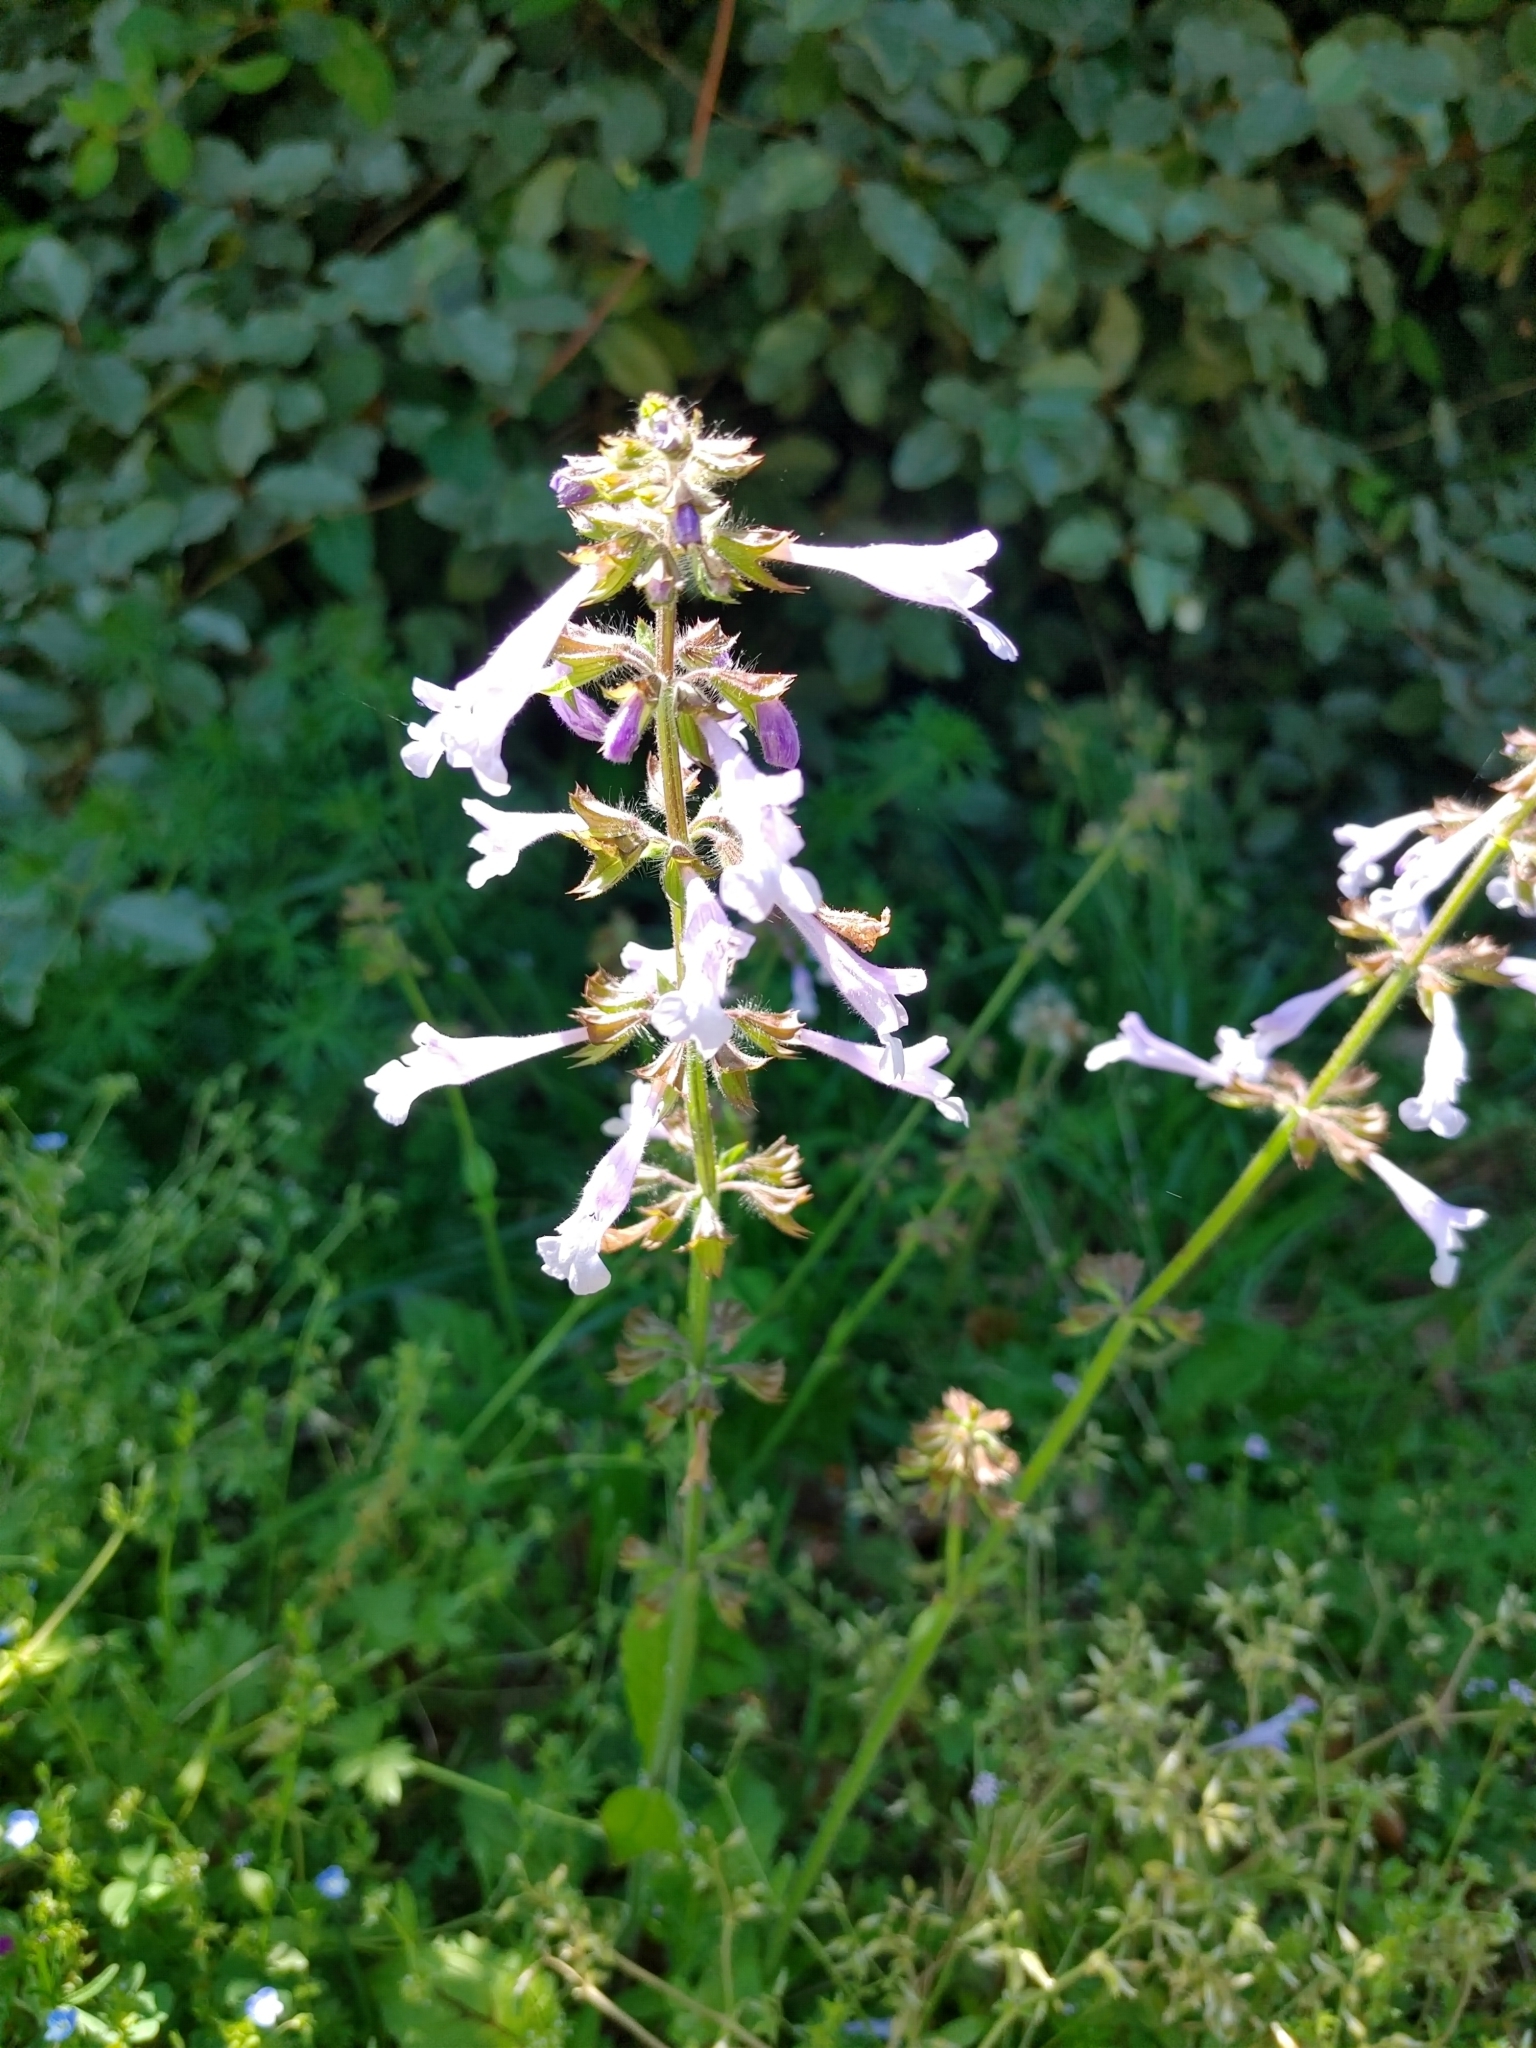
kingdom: Plantae
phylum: Tracheophyta
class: Magnoliopsida
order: Lamiales
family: Lamiaceae
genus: Salvia
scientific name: Salvia lyrata
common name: Cancerweed
